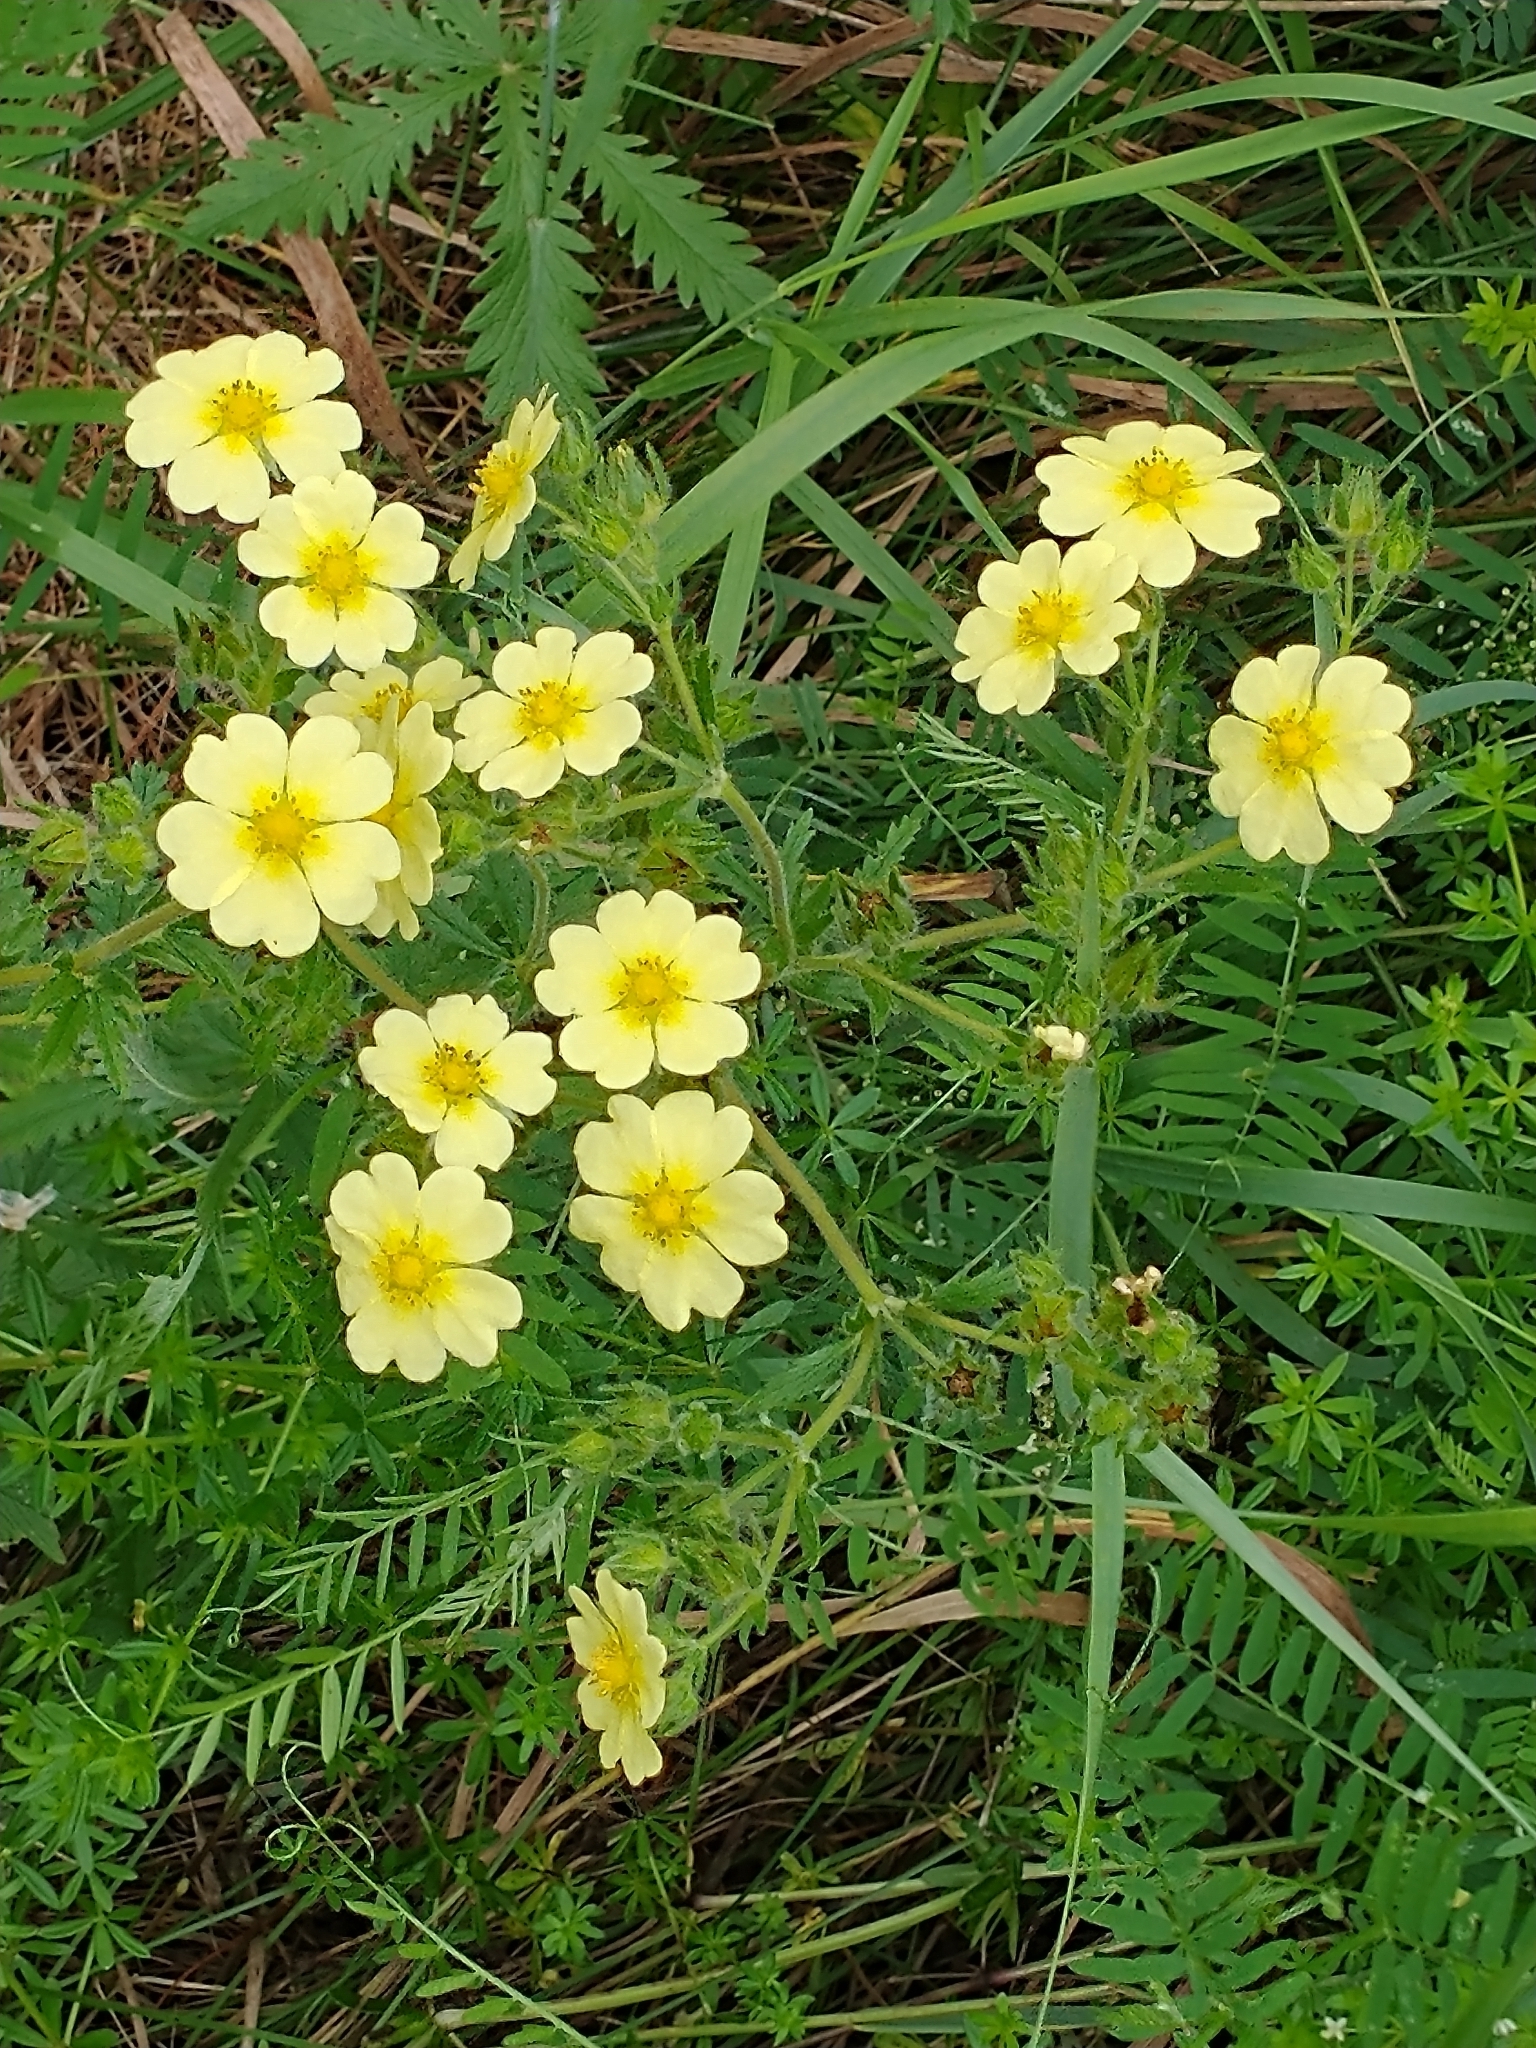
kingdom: Plantae
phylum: Tracheophyta
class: Magnoliopsida
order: Rosales
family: Rosaceae
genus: Potentilla
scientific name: Potentilla recta
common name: Sulphur cinquefoil
